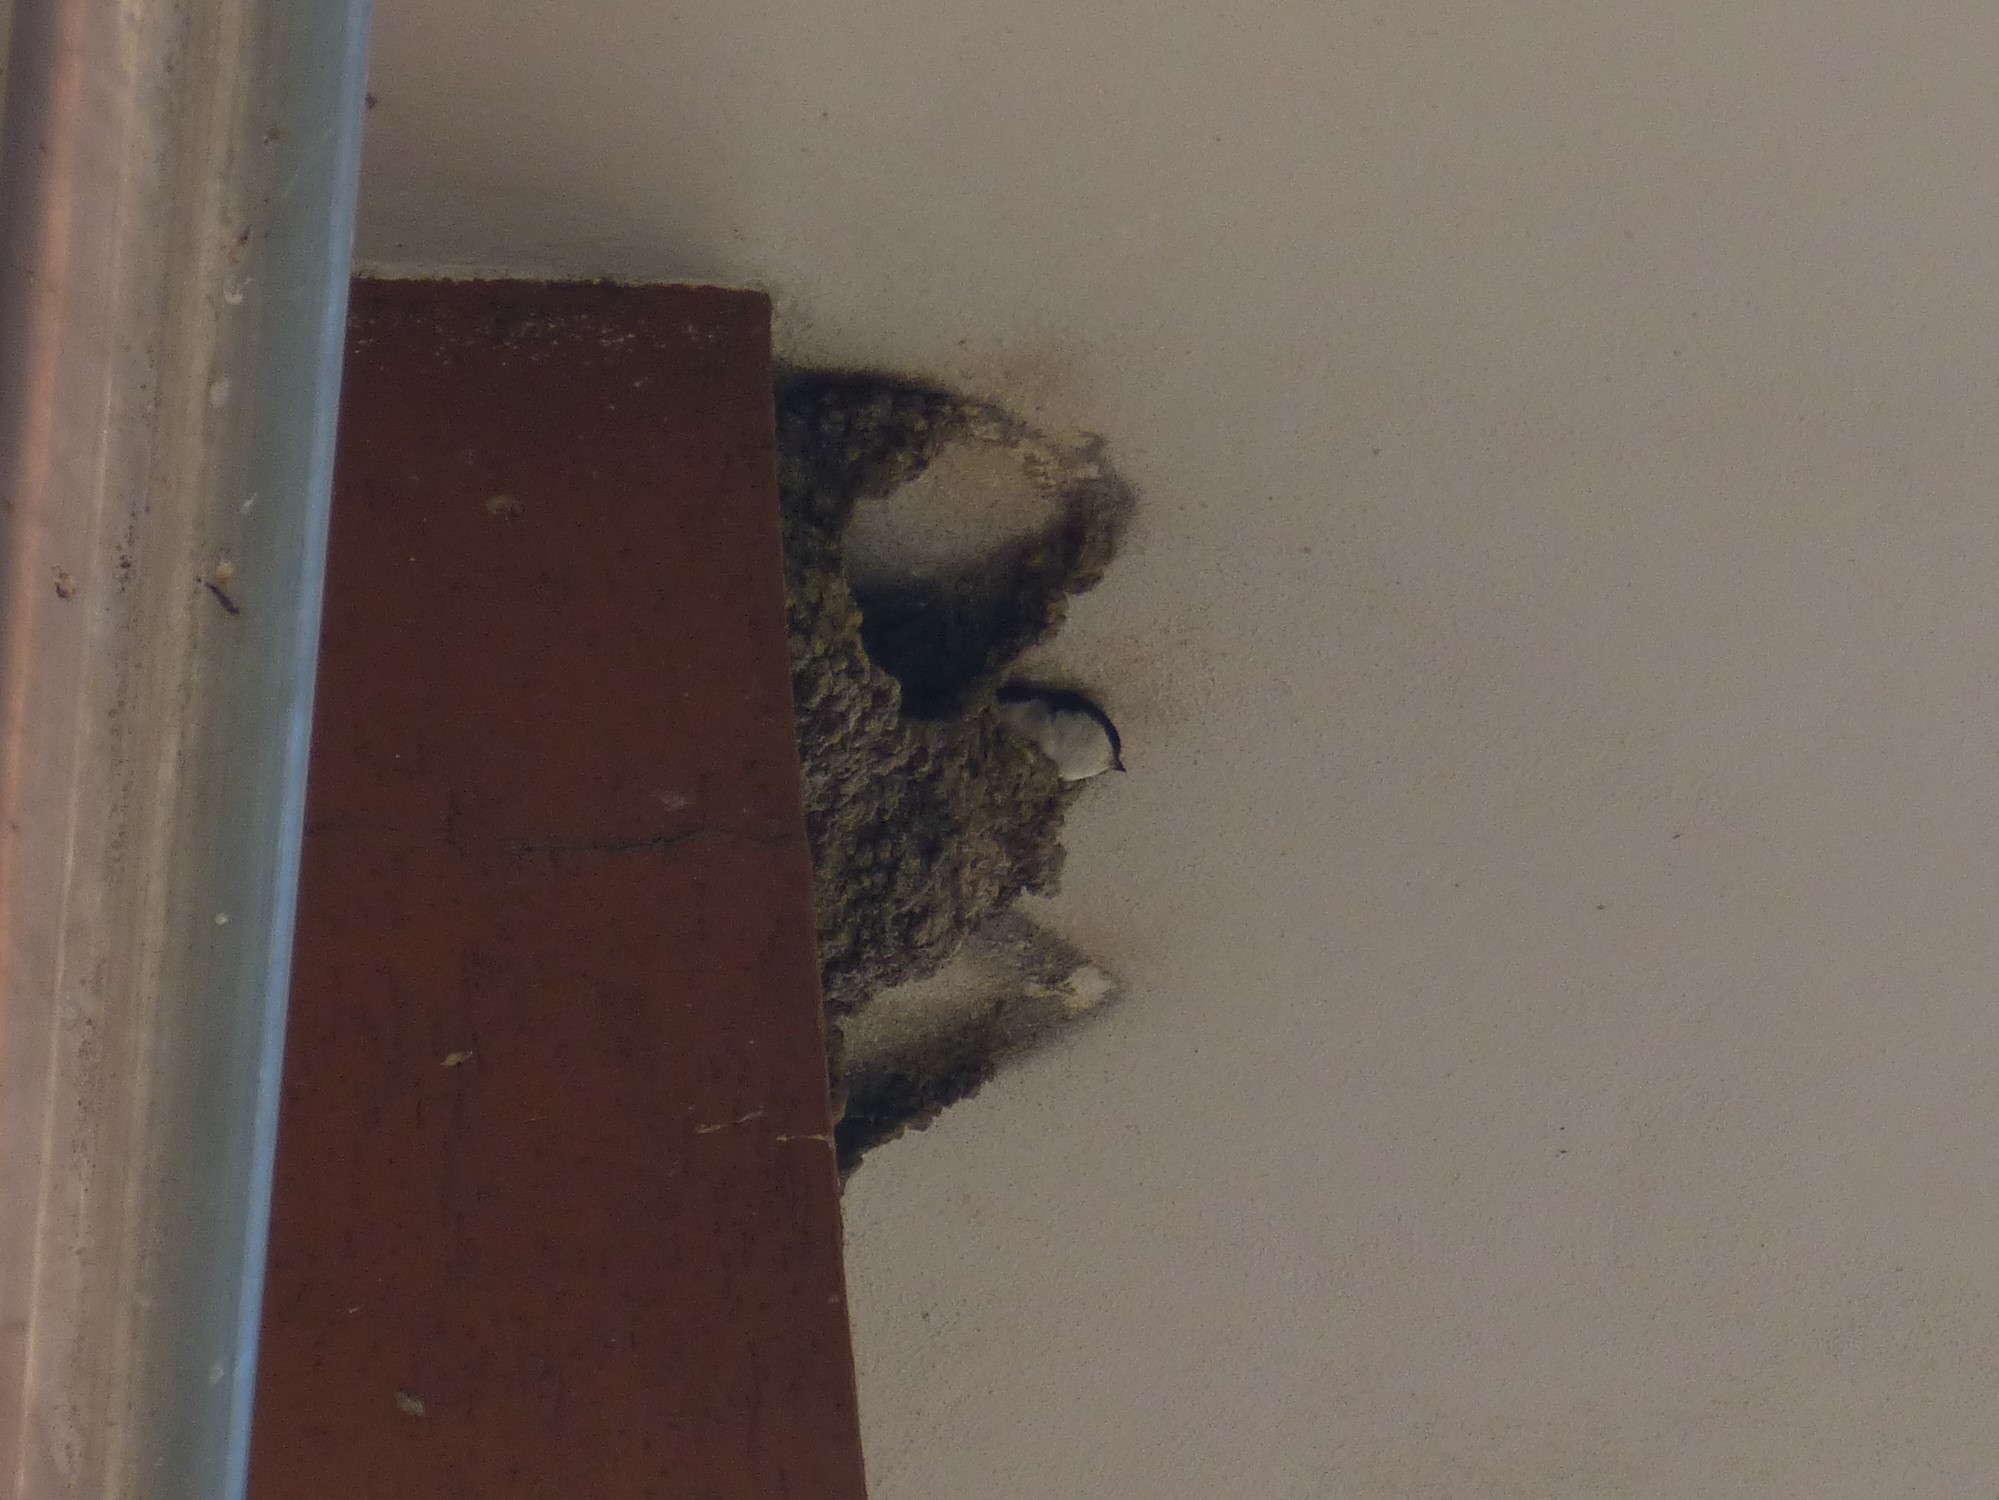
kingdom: Animalia
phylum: Chordata
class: Aves
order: Passeriformes
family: Hirundinidae
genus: Delichon
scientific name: Delichon urbicum
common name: Common house martin
